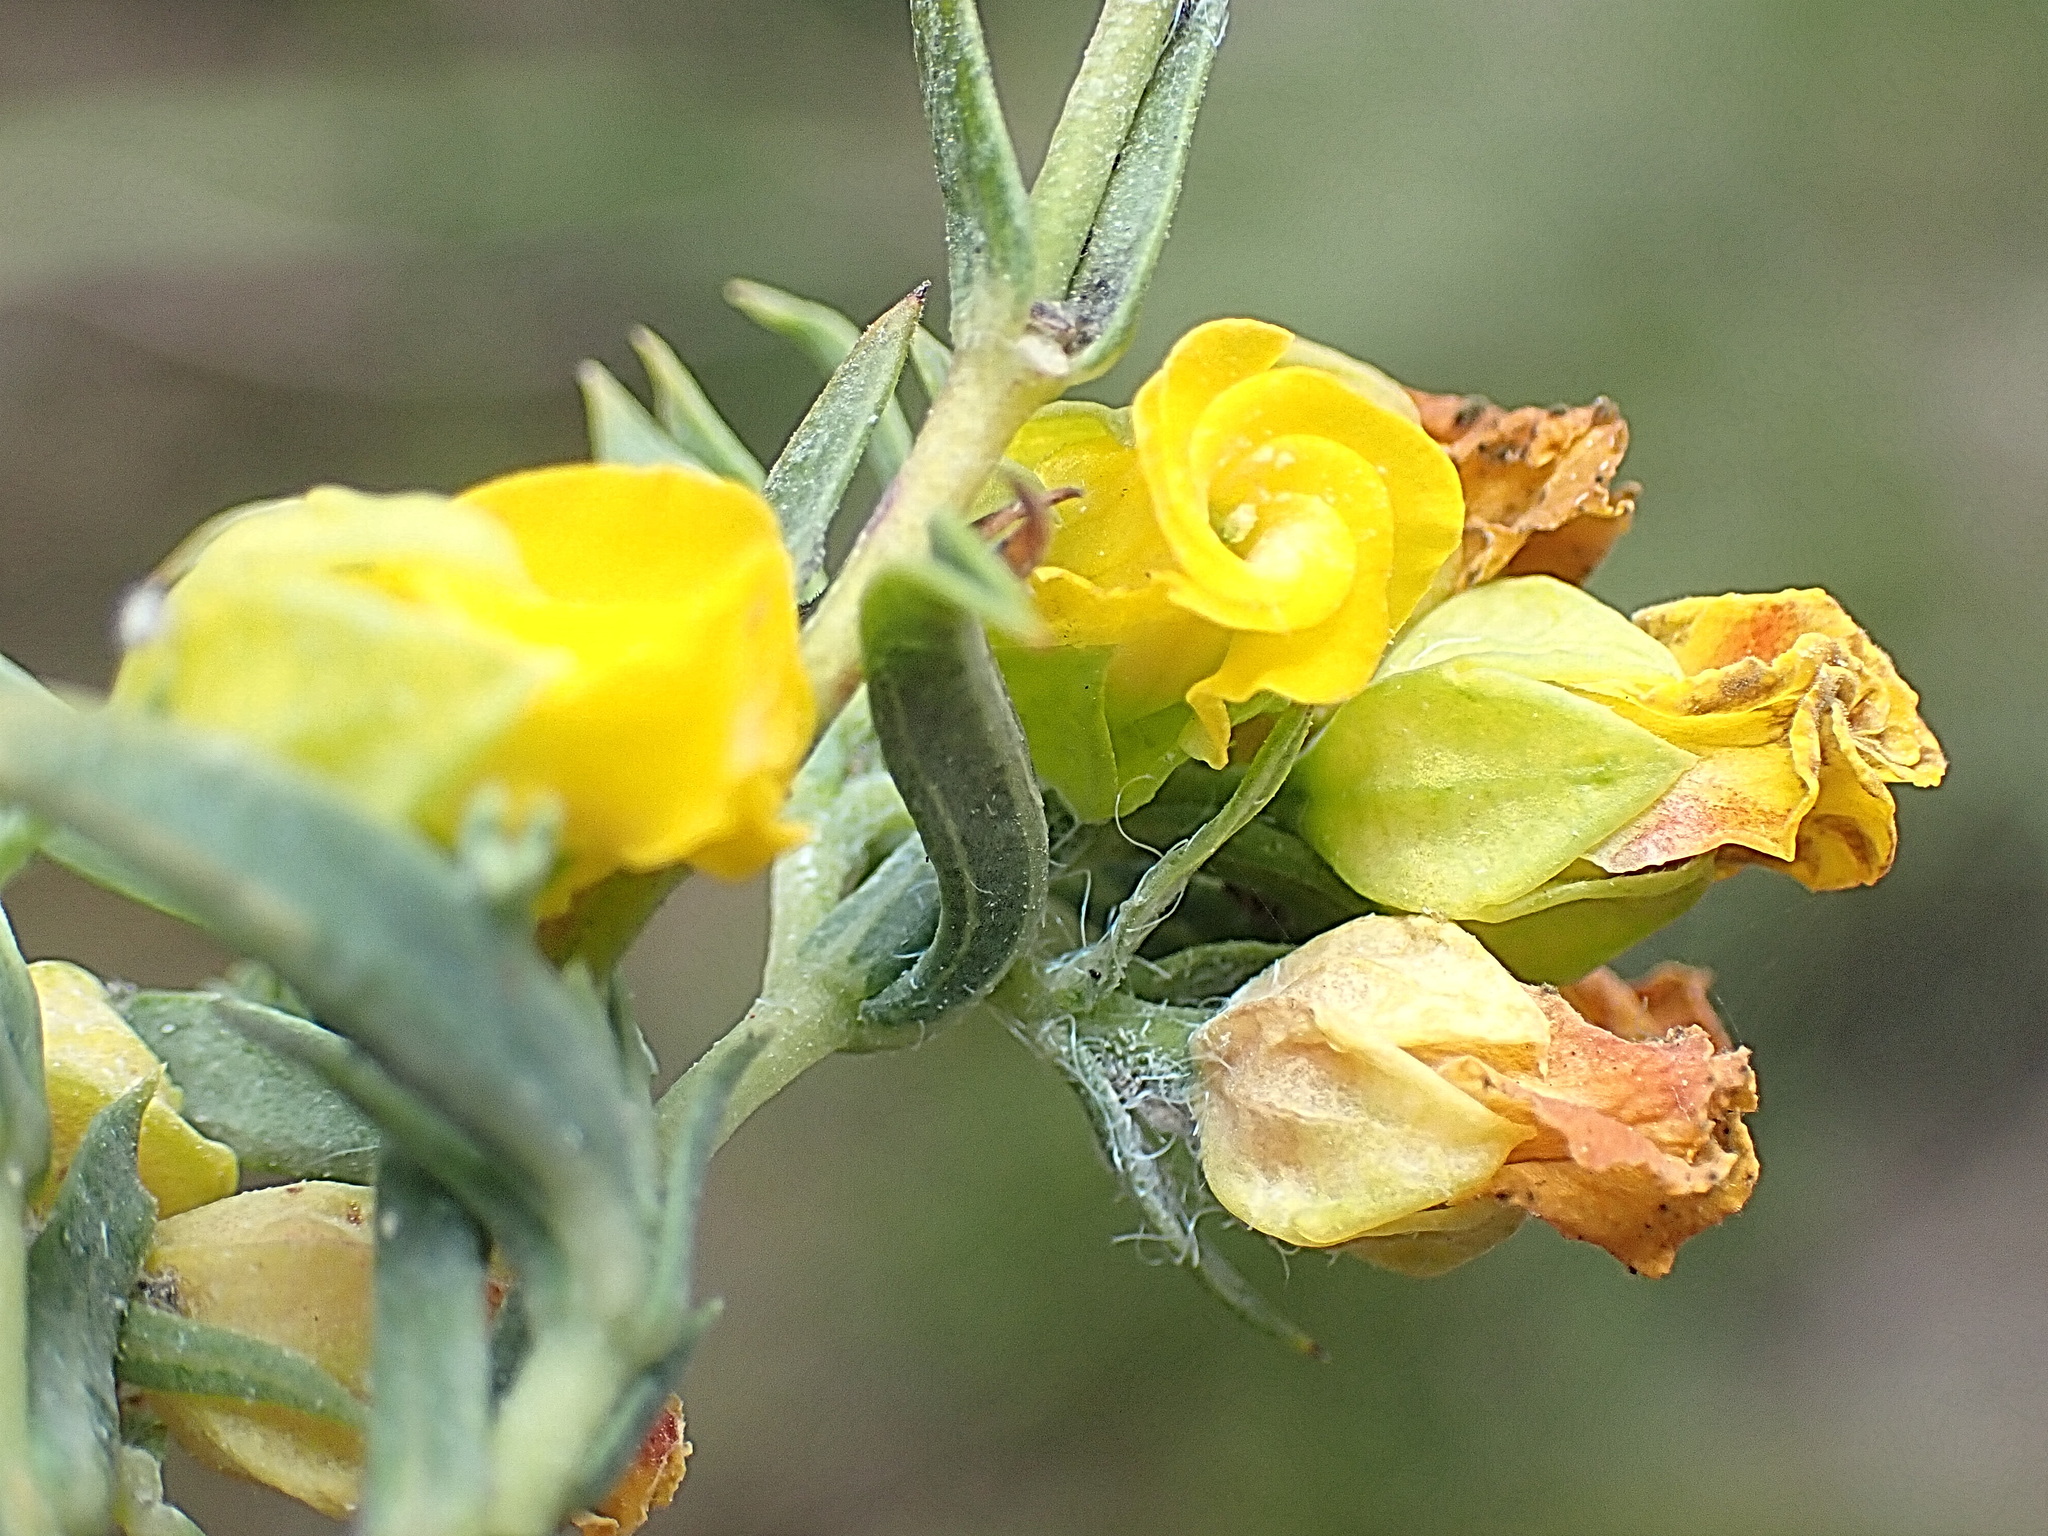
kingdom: Plantae
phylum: Tracheophyta
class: Magnoliopsida
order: Malvales
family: Malvaceae
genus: Hermannia
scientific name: Hermannia
